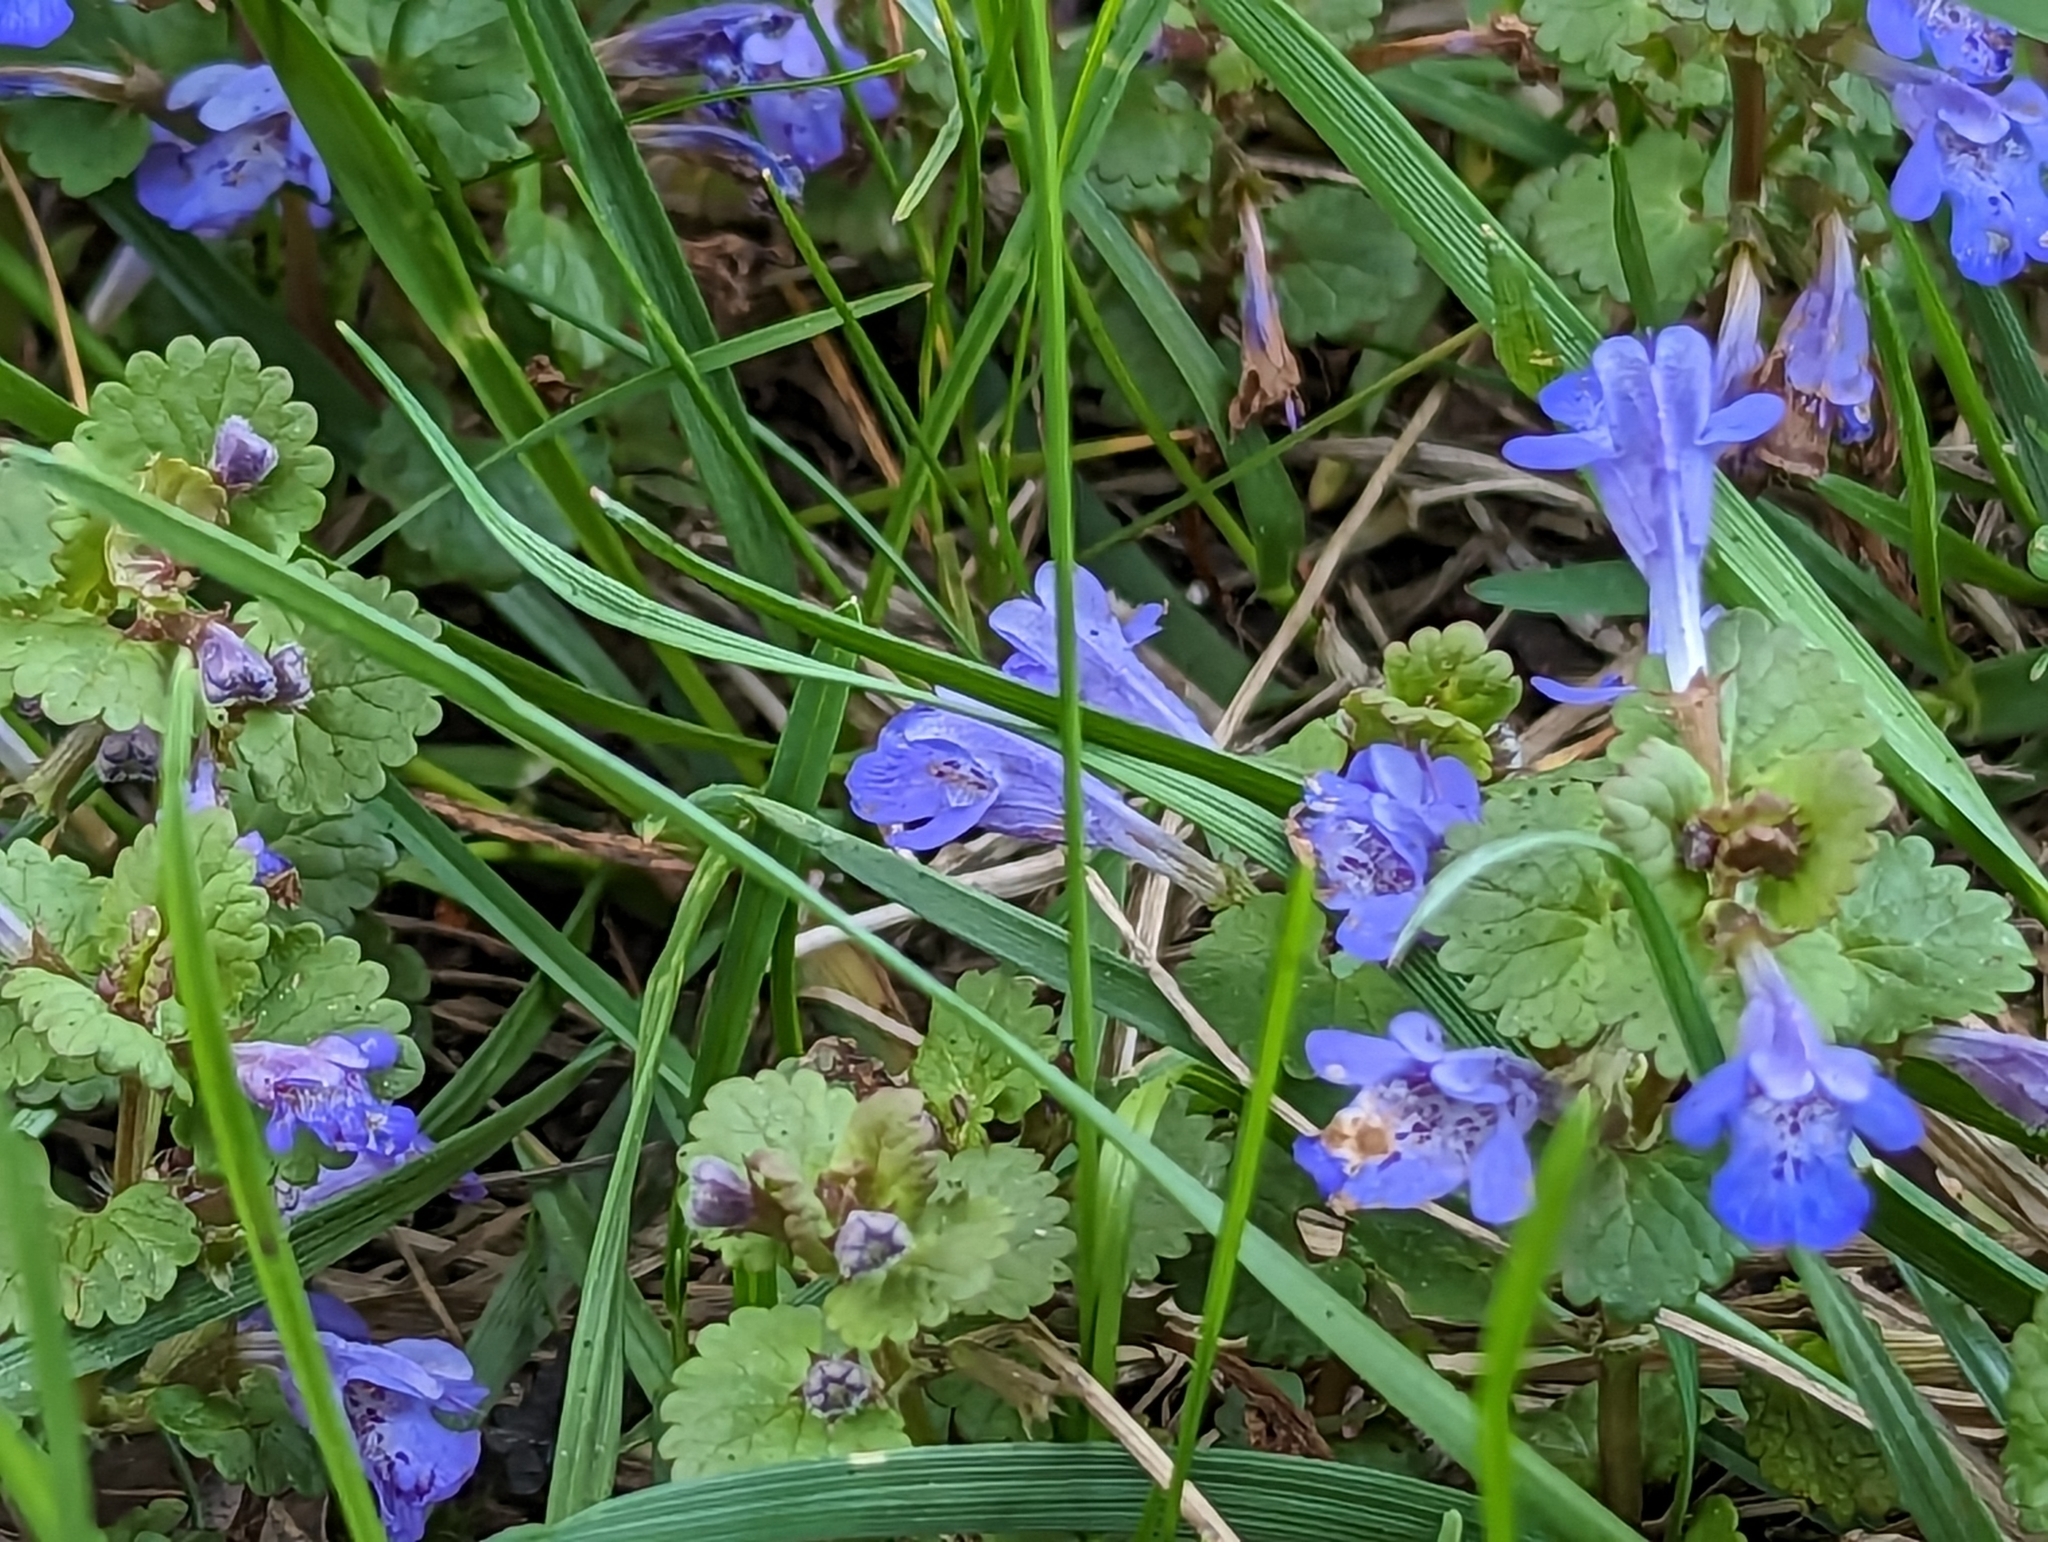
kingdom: Plantae
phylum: Tracheophyta
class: Magnoliopsida
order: Lamiales
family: Lamiaceae
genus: Glechoma
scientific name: Glechoma hederacea
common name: Ground ivy
